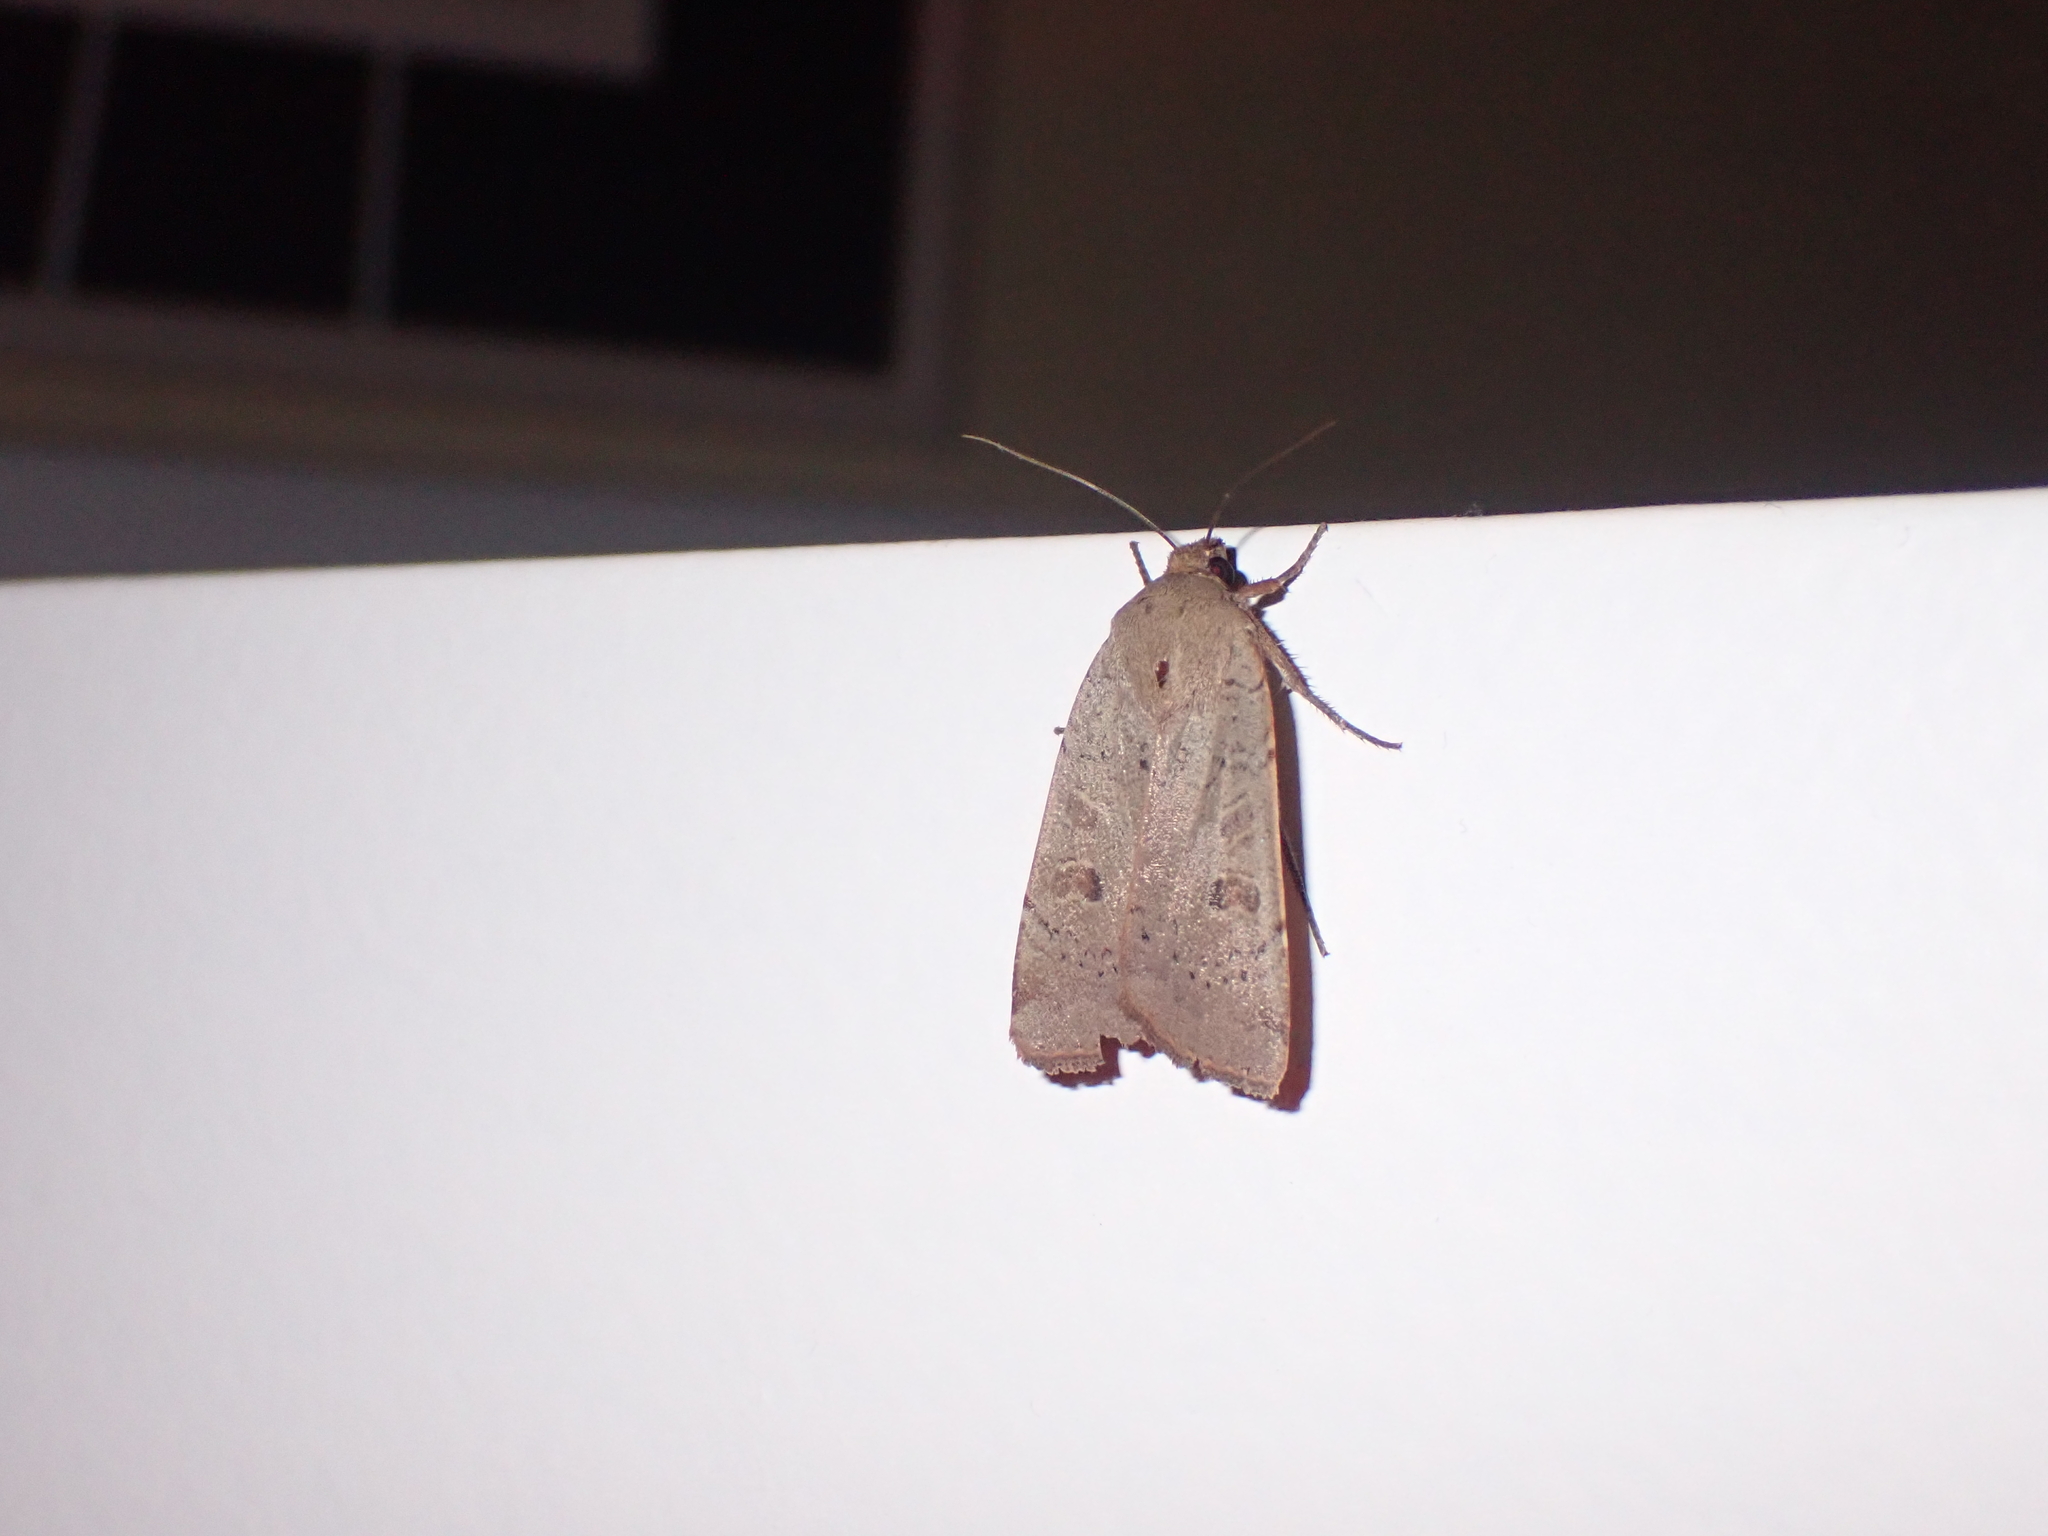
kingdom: Animalia
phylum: Arthropoda
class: Insecta
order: Lepidoptera
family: Noctuidae
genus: Noctua
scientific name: Noctua comes
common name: Lesser yellow underwing
